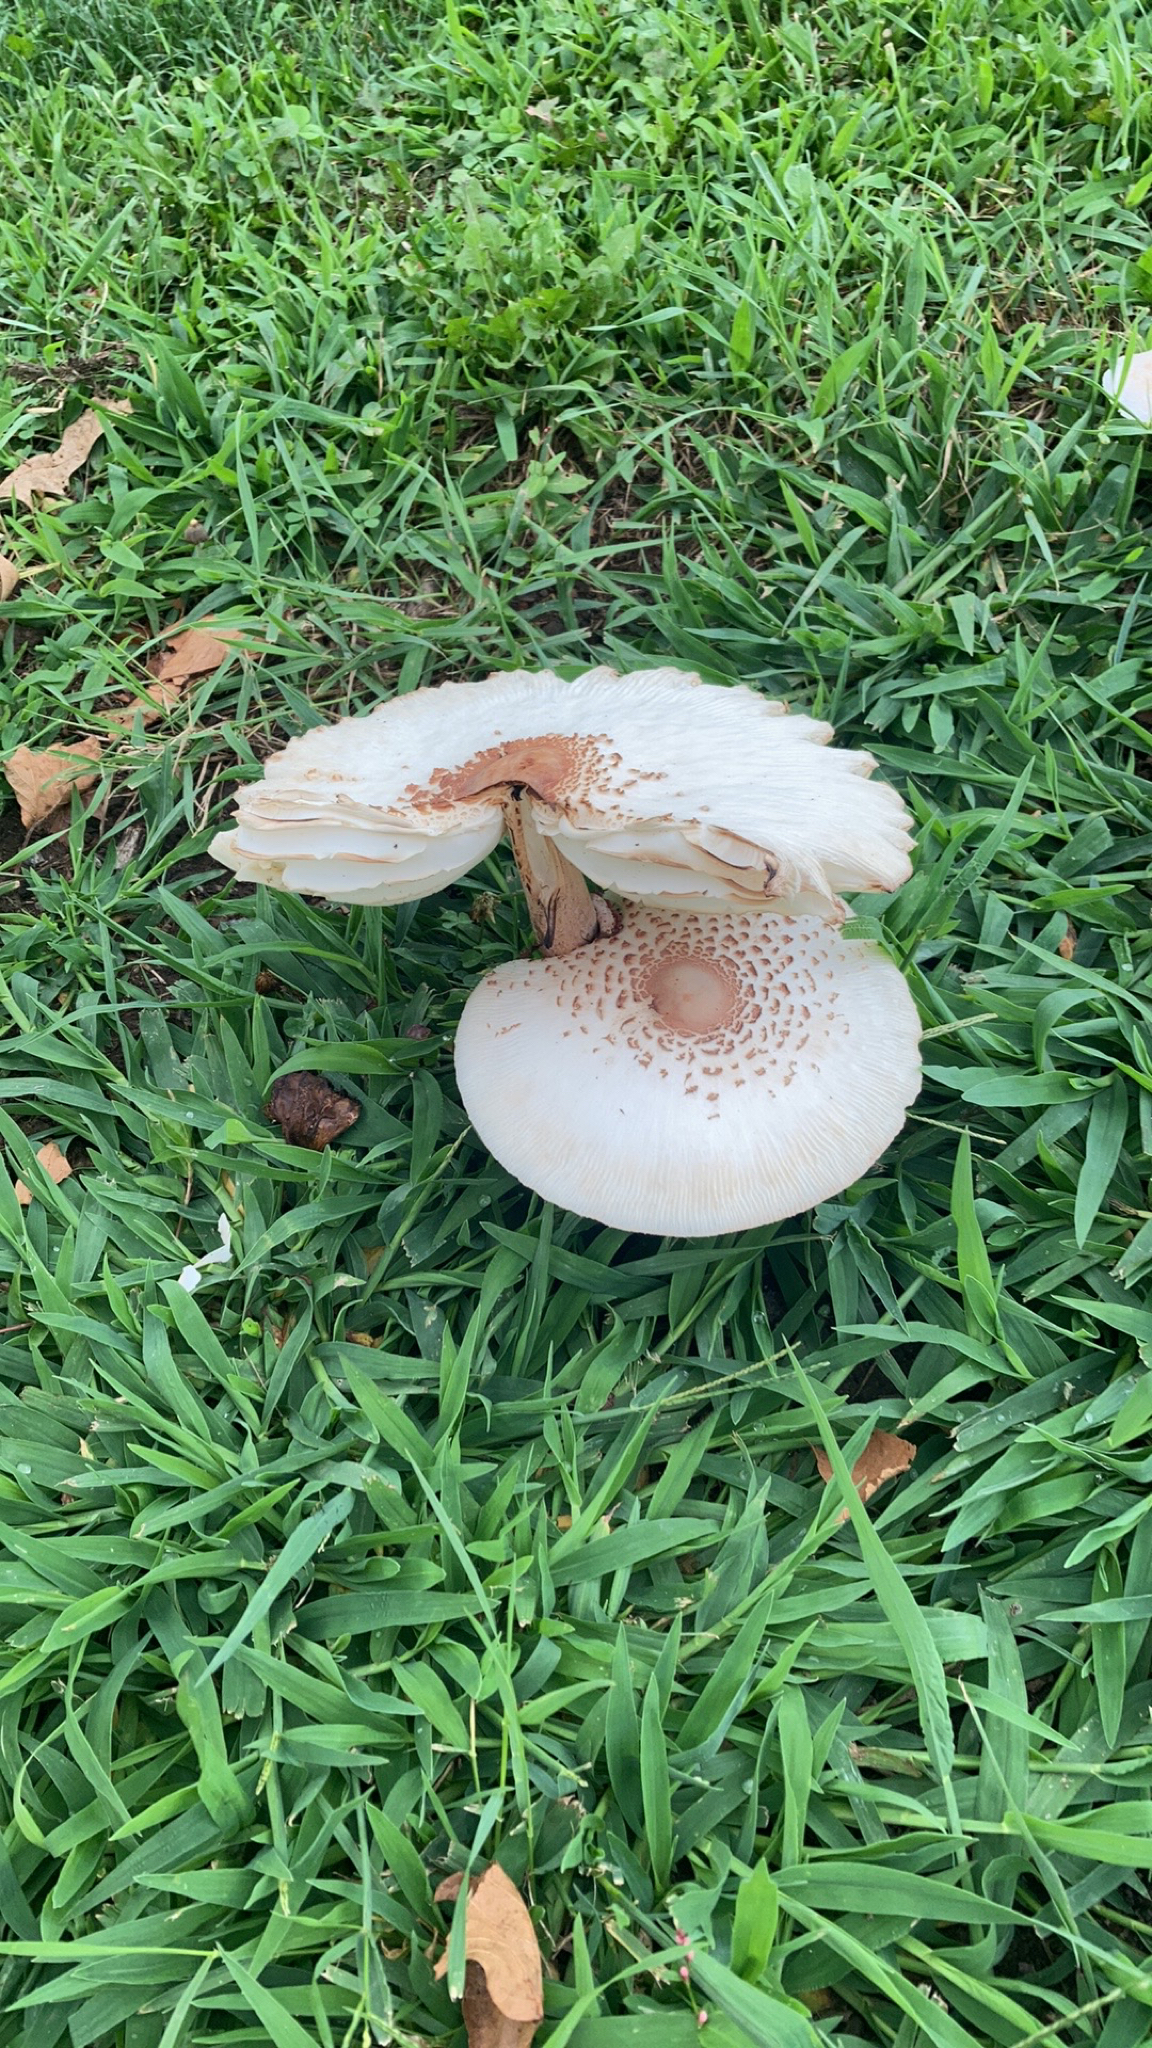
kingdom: Fungi
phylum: Basidiomycota
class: Agaricomycetes
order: Agaricales
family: Agaricaceae
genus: Leucoagaricus
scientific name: Leucoagaricus americanus
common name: Reddening lepiota
